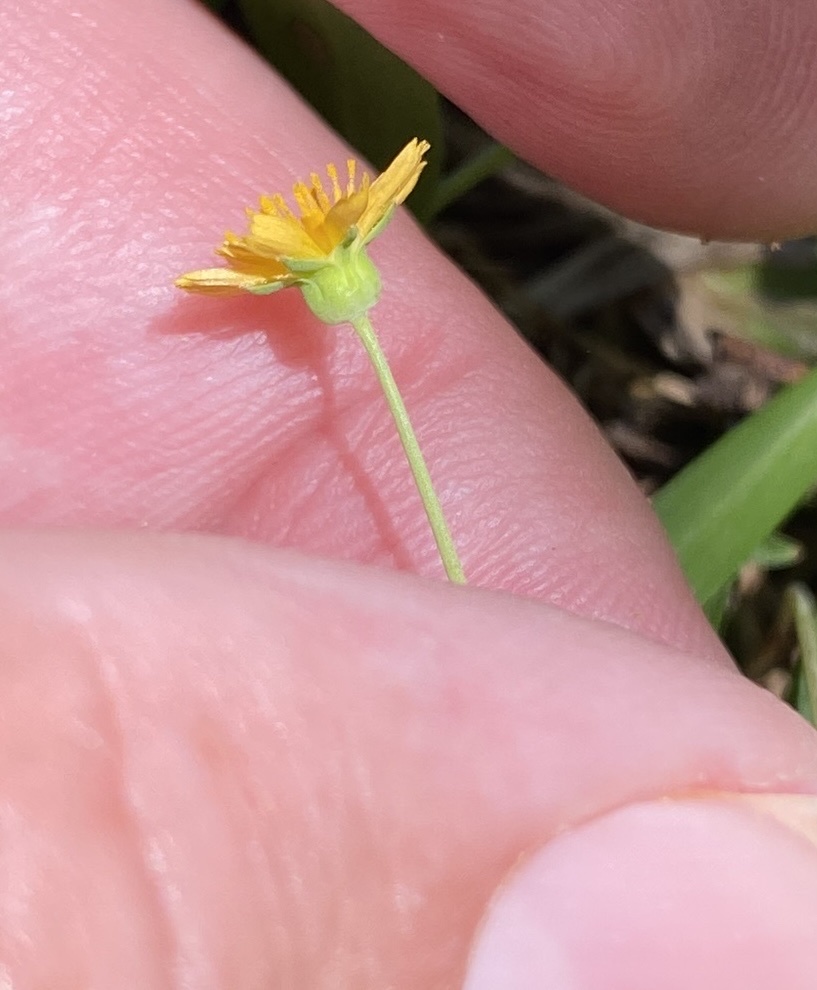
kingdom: Plantae
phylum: Tracheophyta
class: Magnoliopsida
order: Asterales
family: Asteraceae
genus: Krigia
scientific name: Krigia cespitosa
